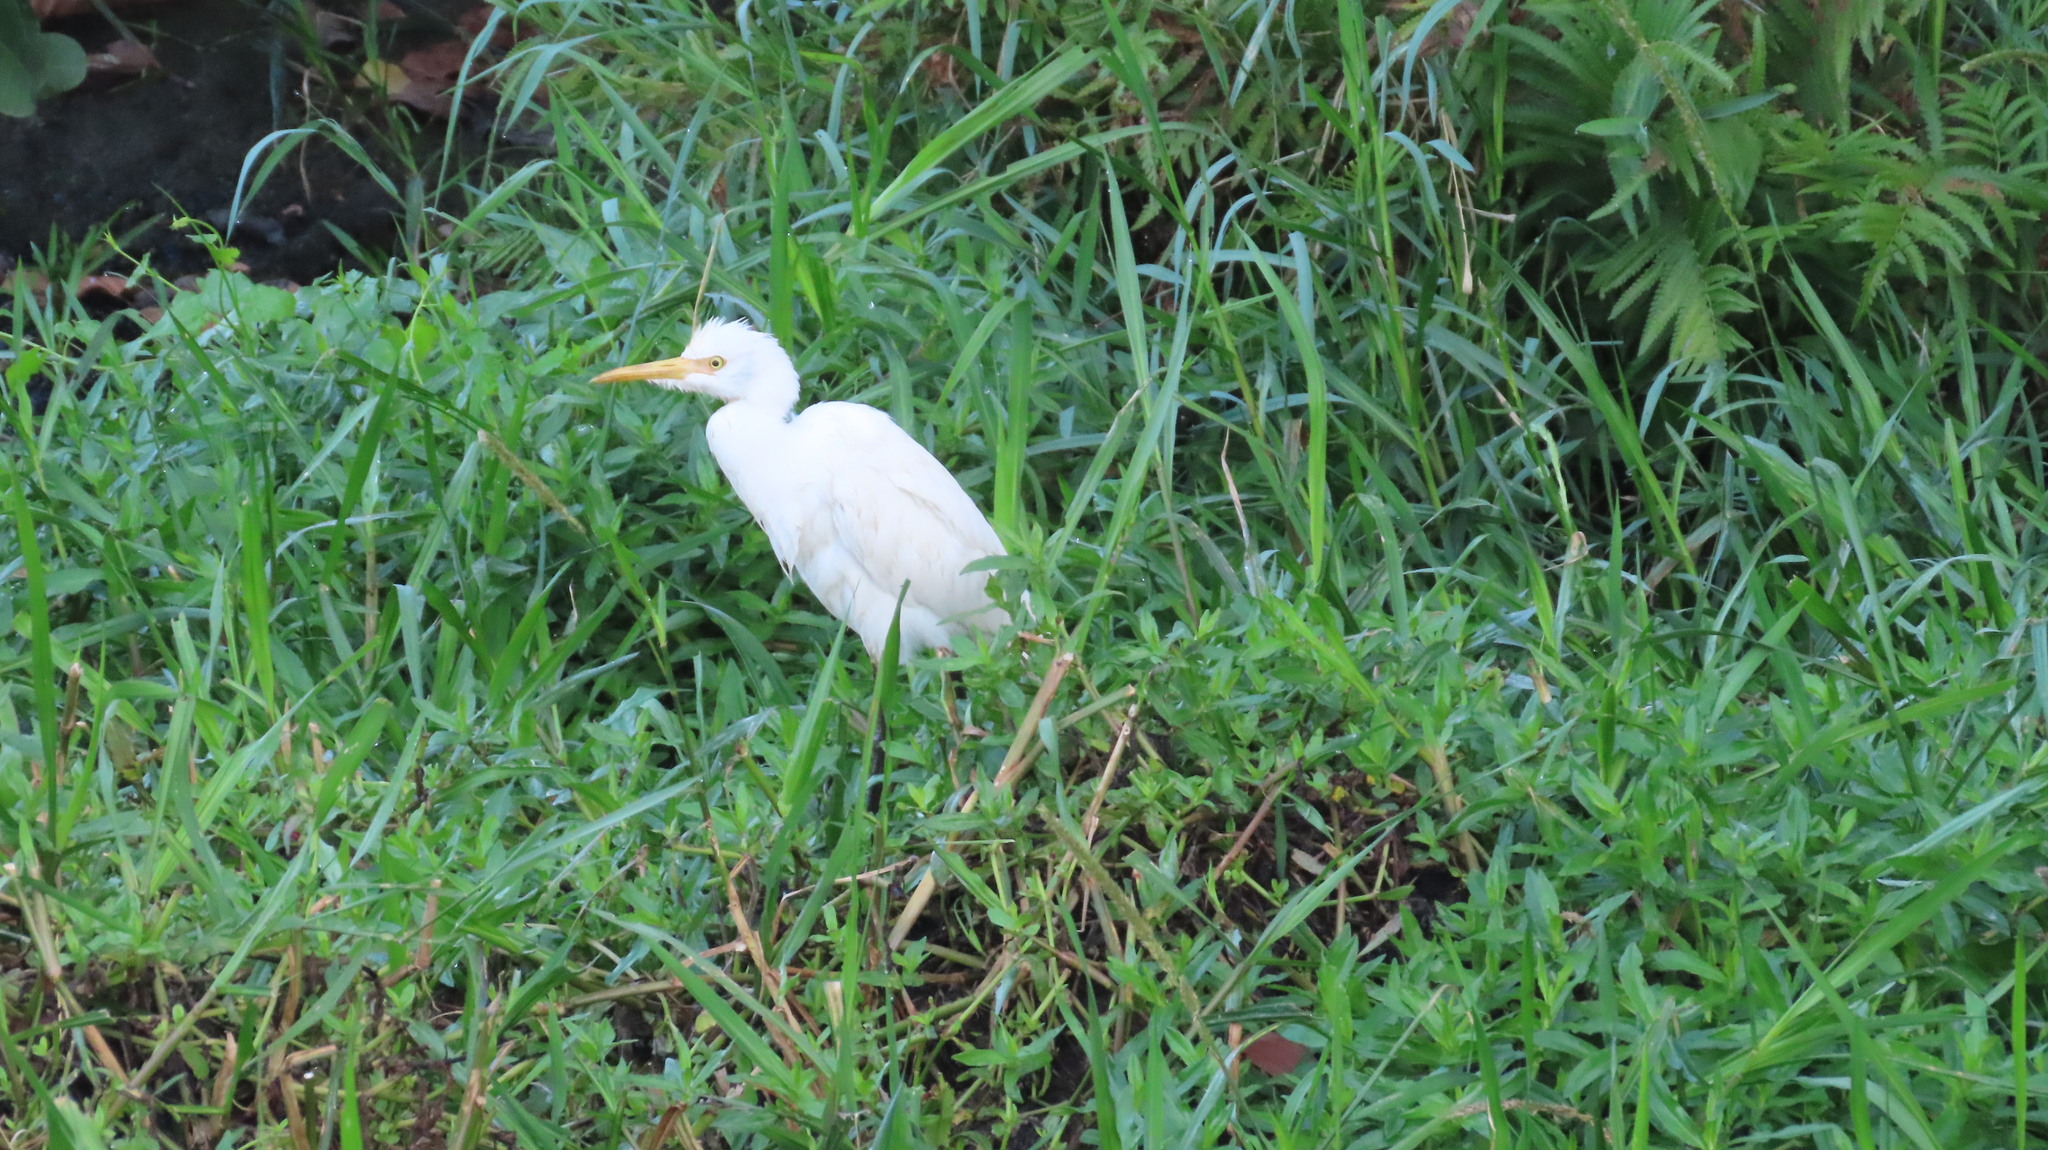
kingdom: Animalia
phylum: Chordata
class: Aves
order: Pelecaniformes
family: Ardeidae
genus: Bubulcus
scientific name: Bubulcus coromandus
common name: Eastern cattle egret
